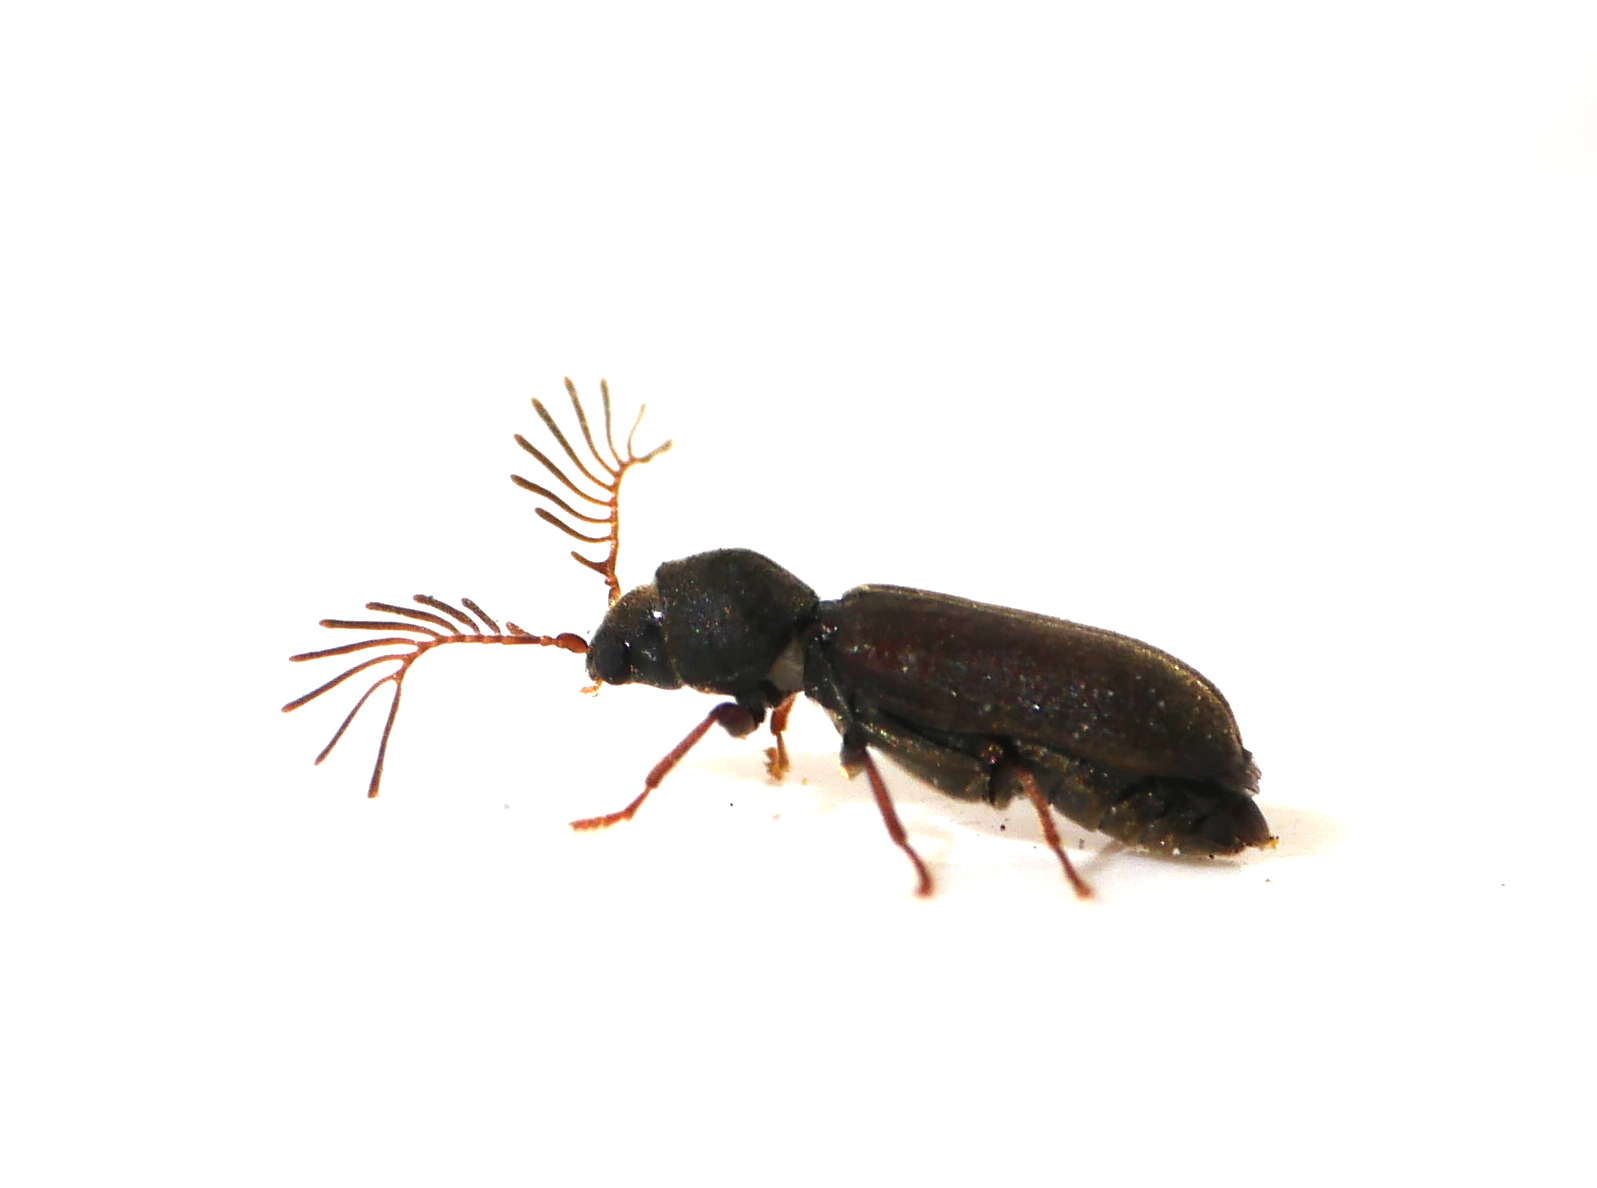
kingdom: Animalia
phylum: Arthropoda
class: Insecta
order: Coleoptera
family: Anobiidae
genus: Ptilinus
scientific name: Ptilinus pectinicornis
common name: Fan-bearing wood-borer
